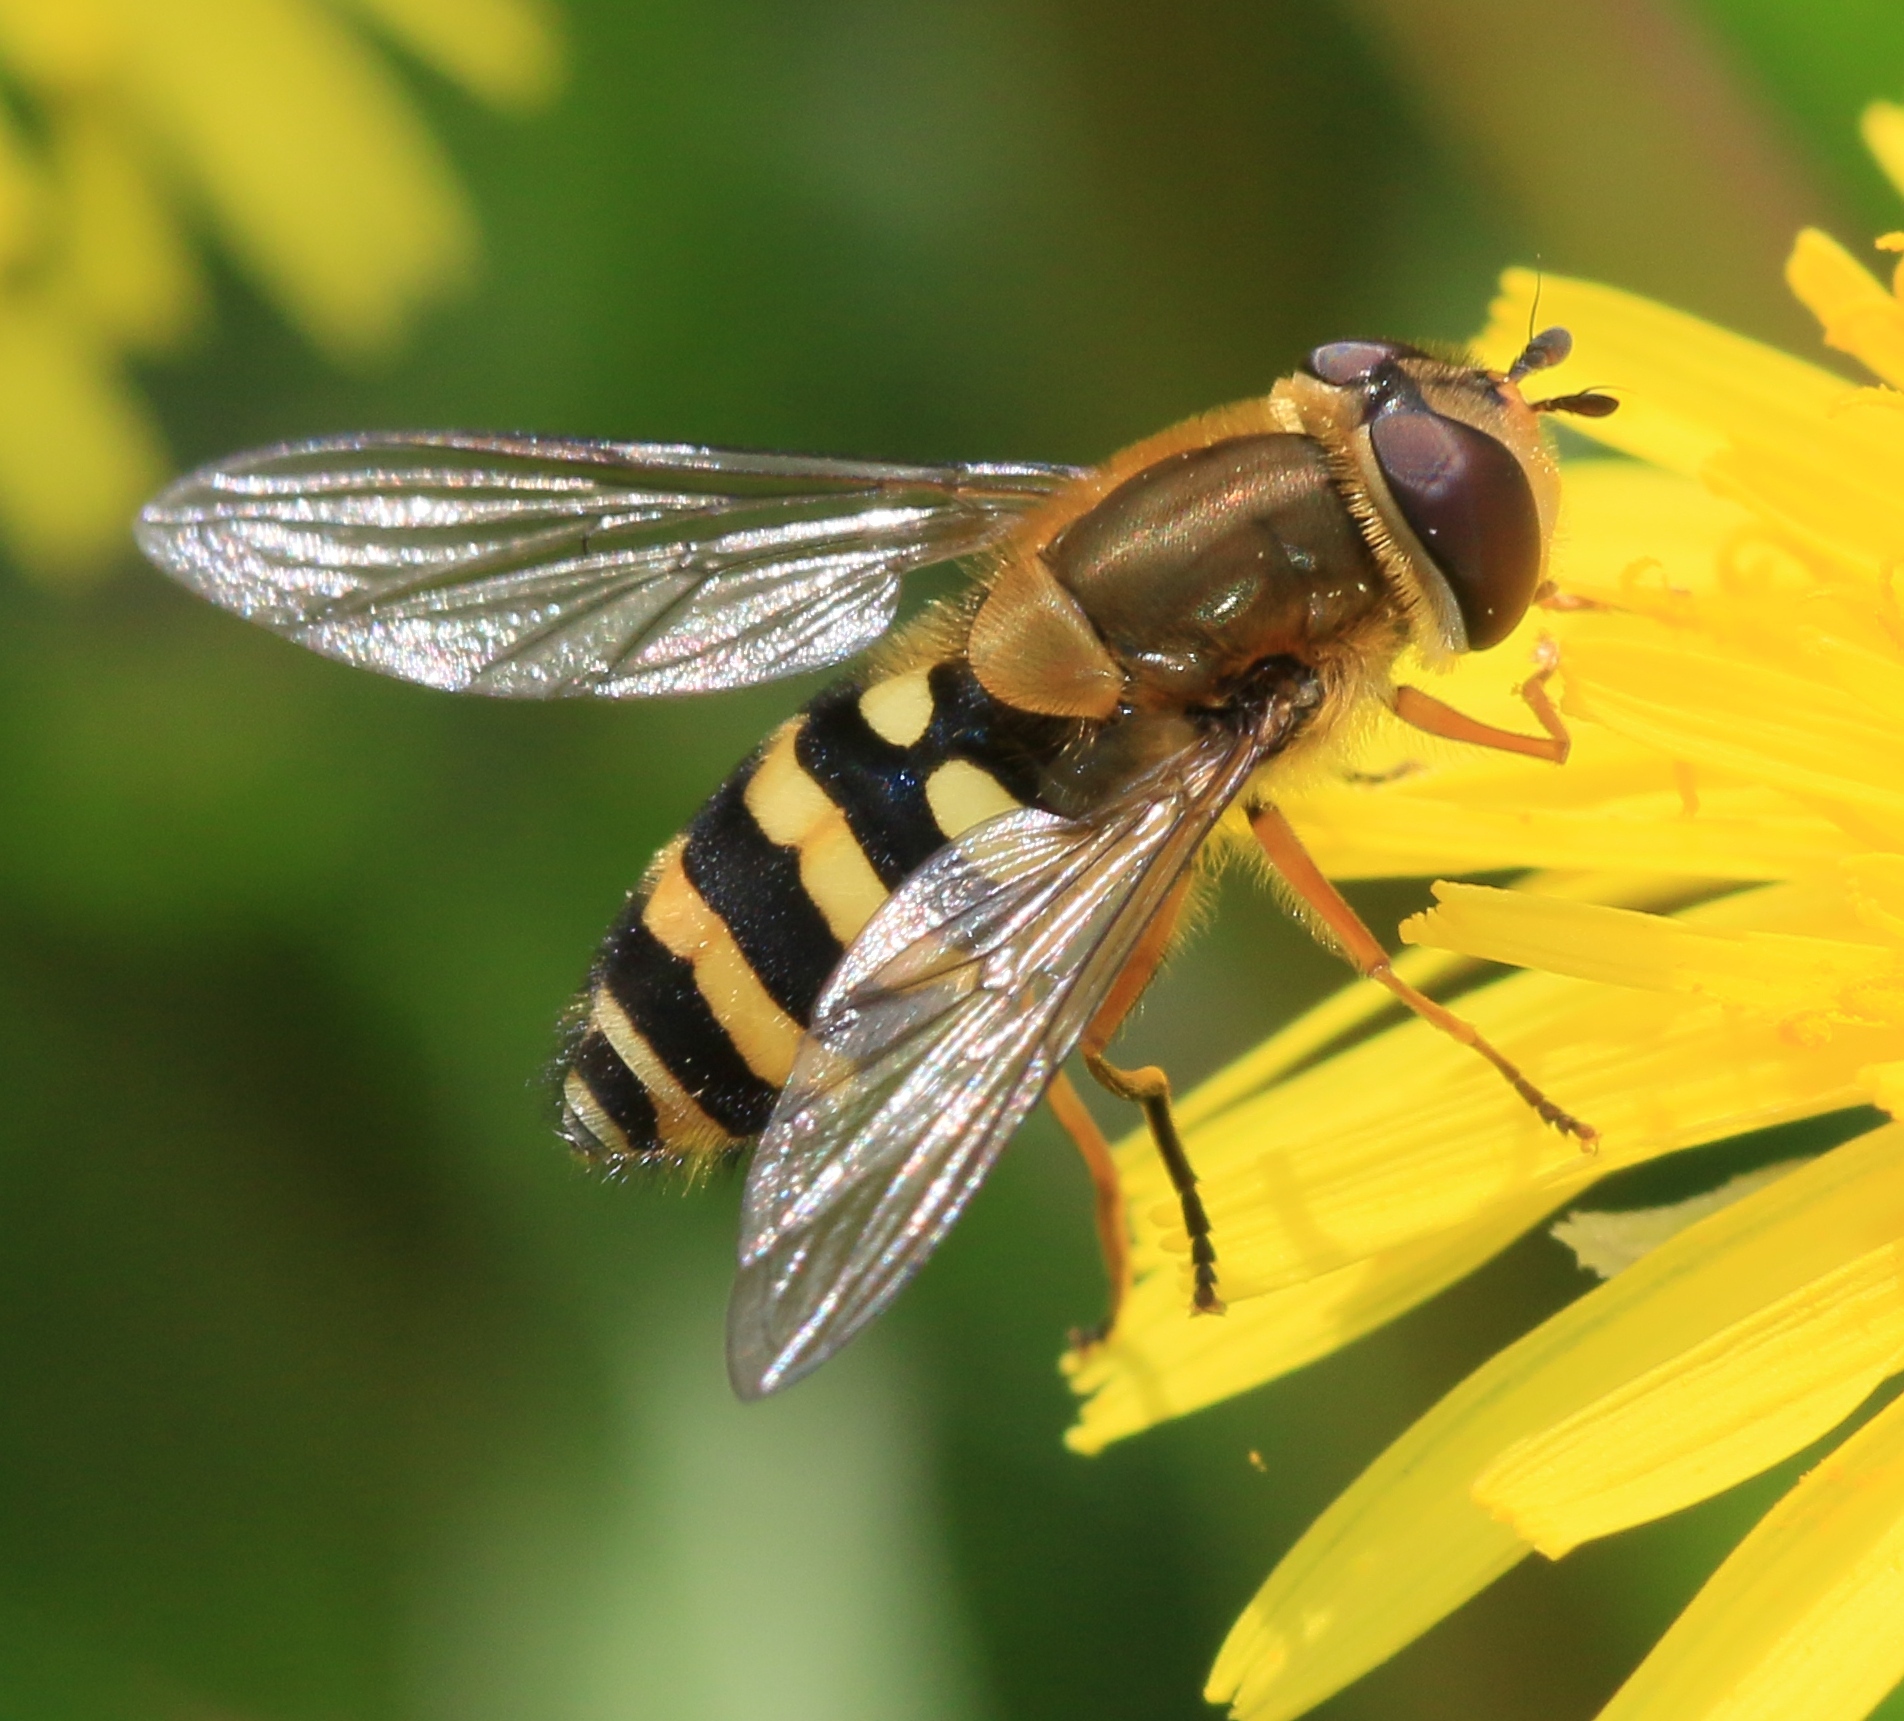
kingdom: Animalia
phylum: Arthropoda
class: Insecta
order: Diptera
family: Syrphidae
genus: Syrphus
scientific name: Syrphus ribesii
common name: Common flower fly
